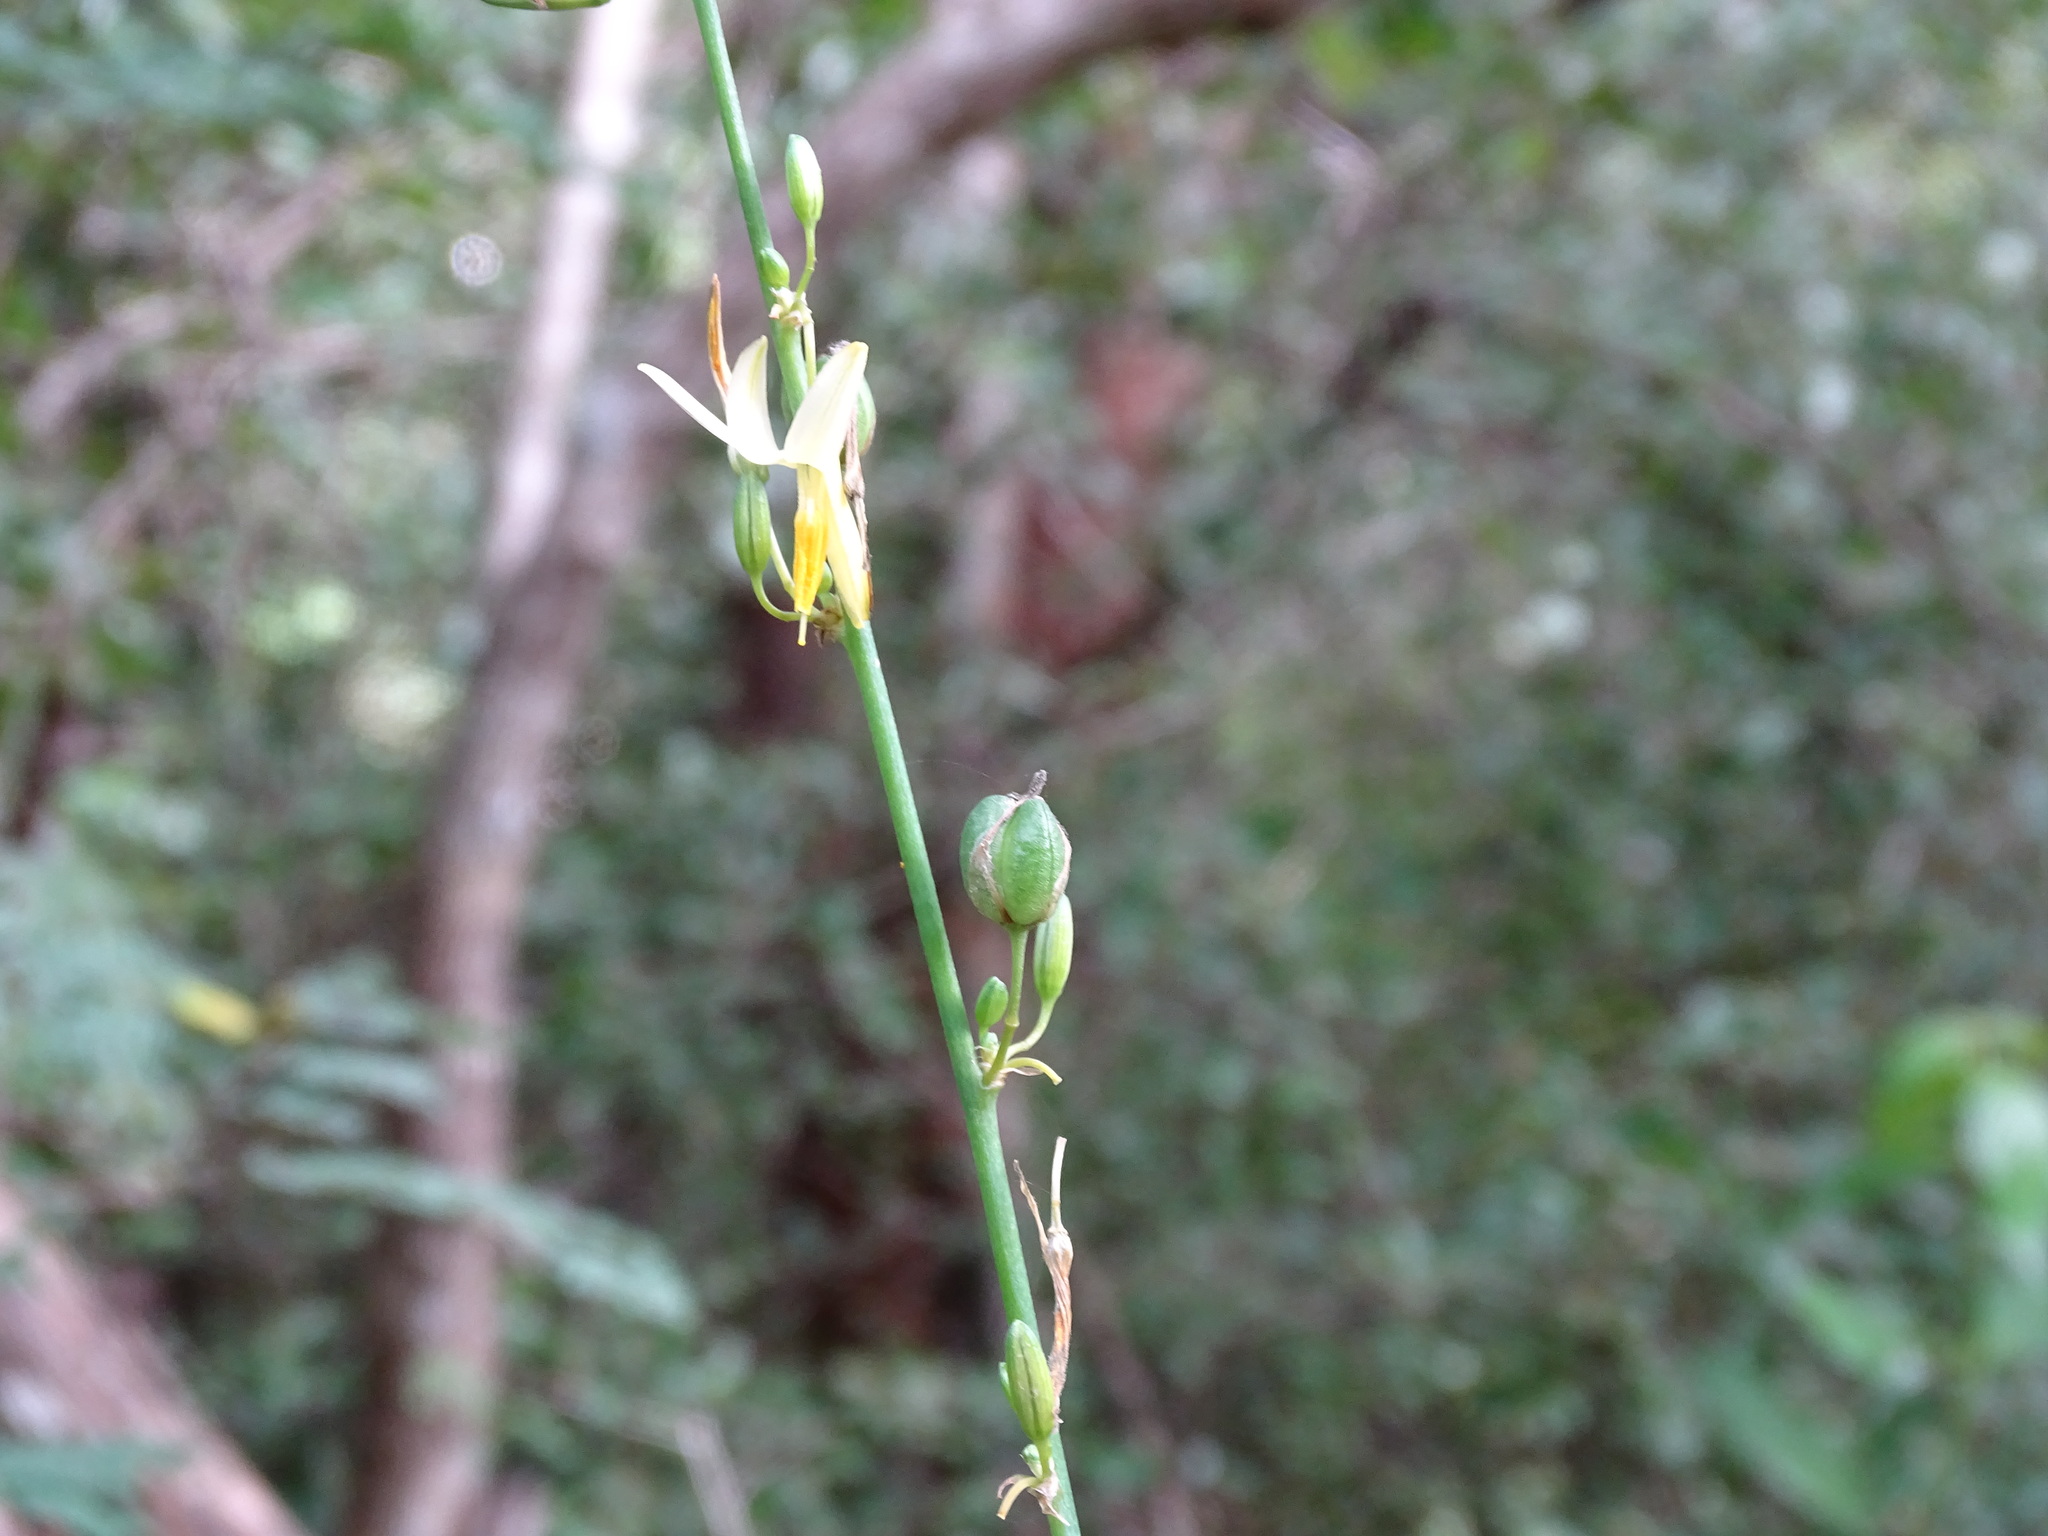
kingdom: Plantae
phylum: Tracheophyta
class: Liliopsida
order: Asparagales
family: Asparagaceae
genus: Echeandia
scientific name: Echeandia luteola
